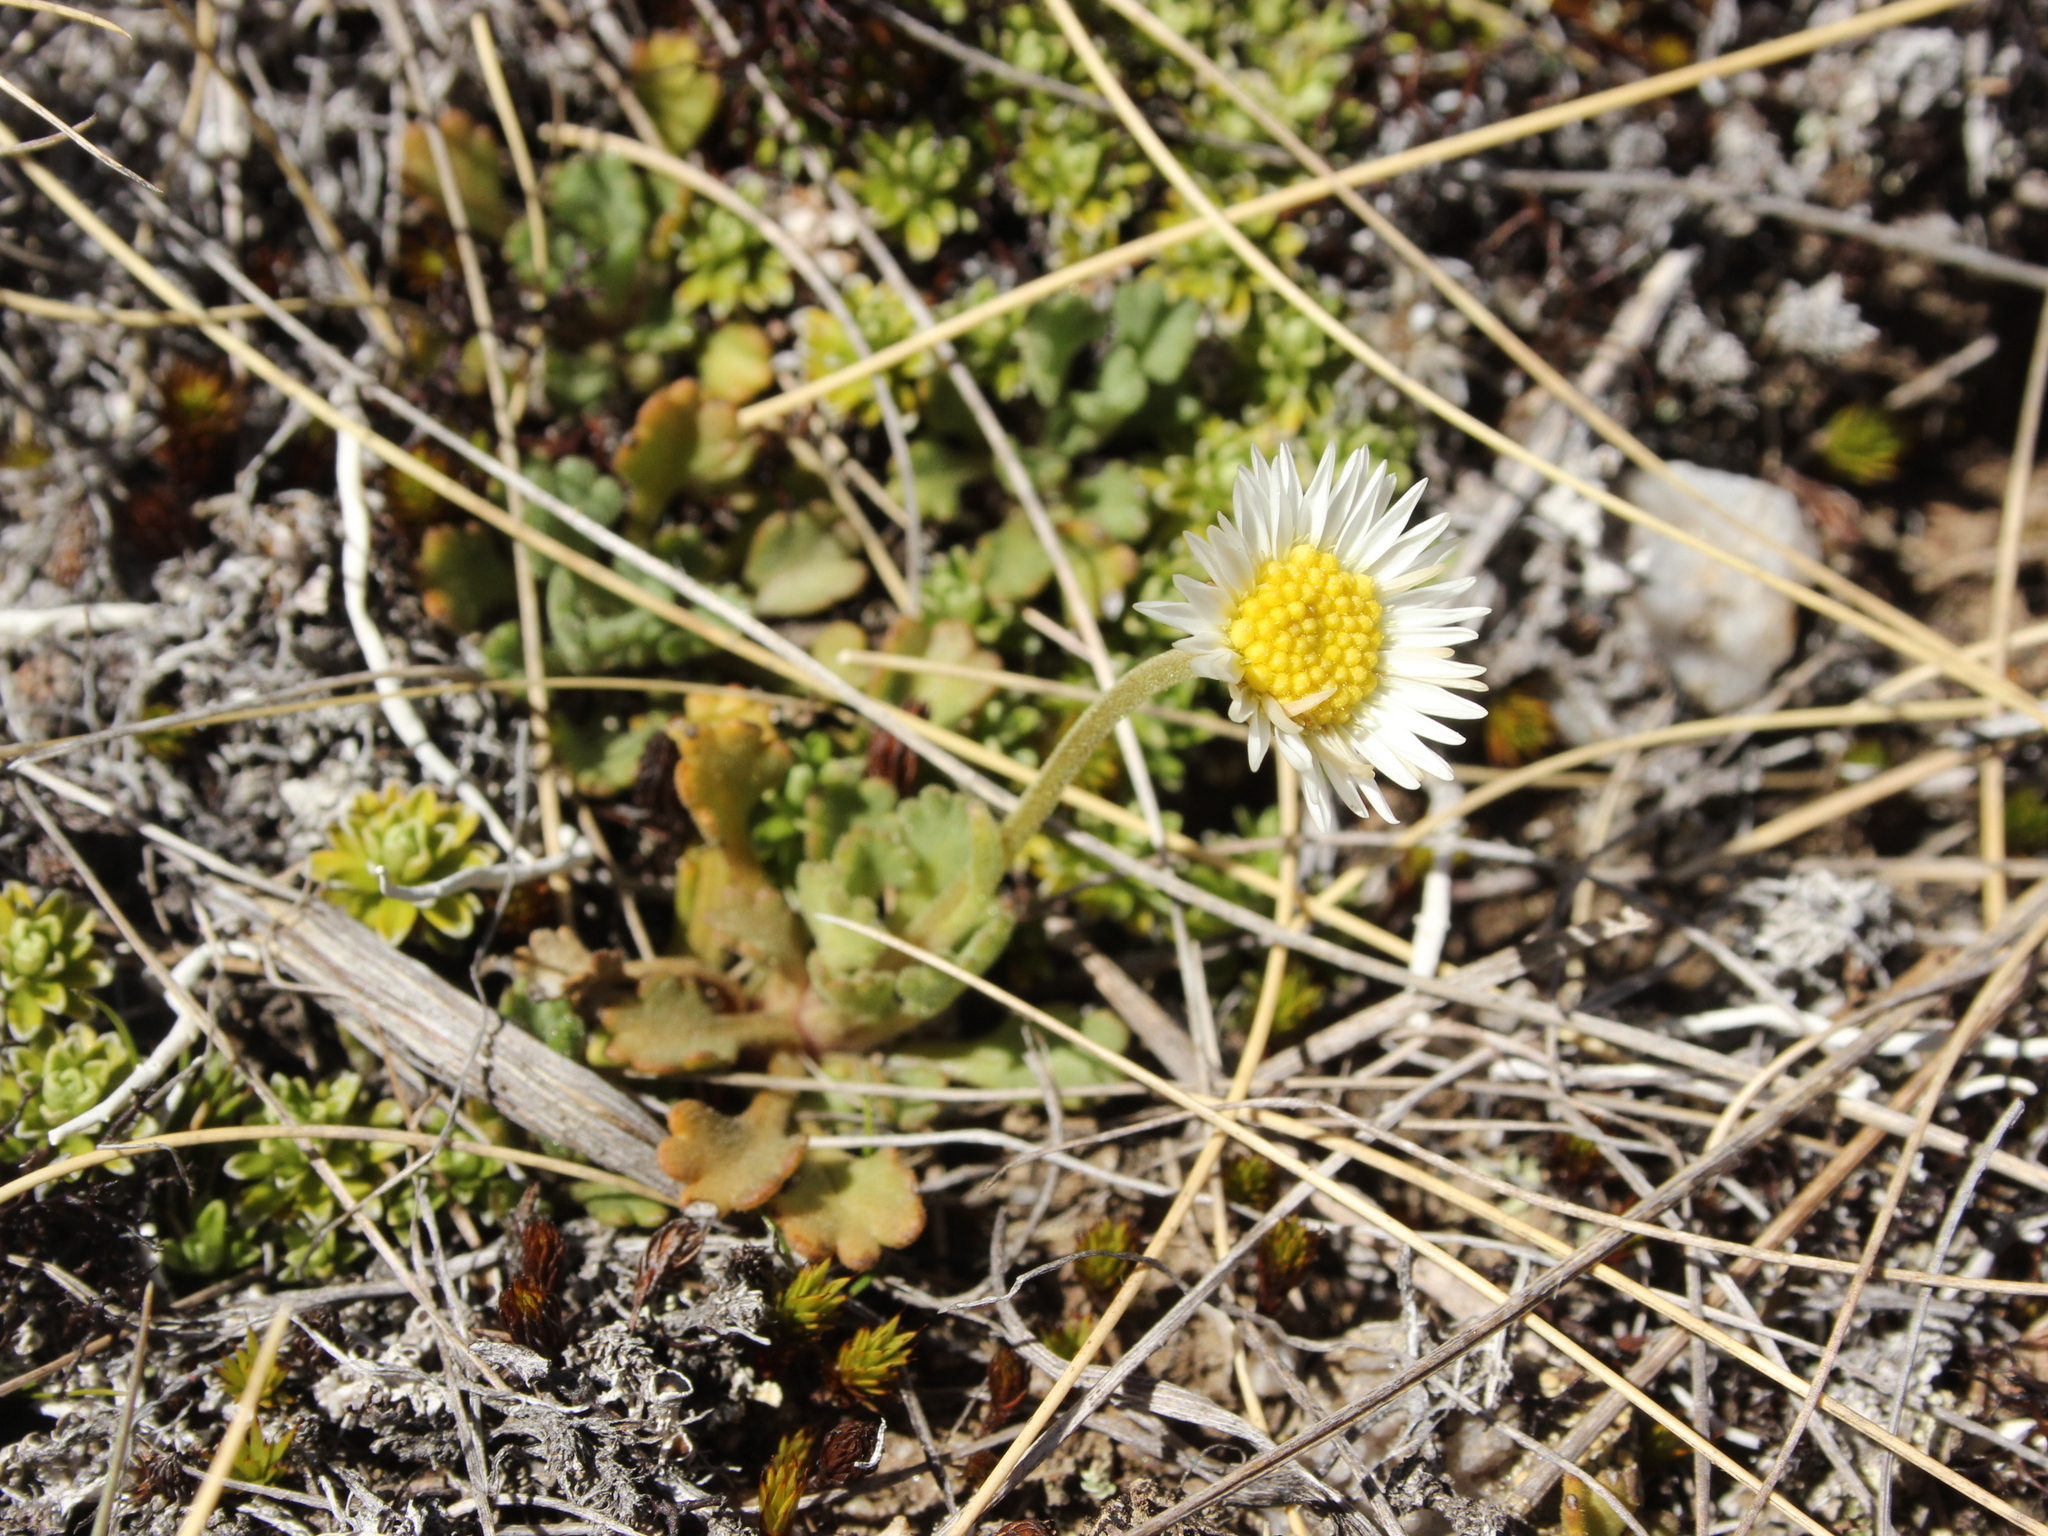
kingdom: Plantae
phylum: Tracheophyta
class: Magnoliopsida
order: Asterales
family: Asteraceae
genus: Brachyscome
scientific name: Brachyscome montana
